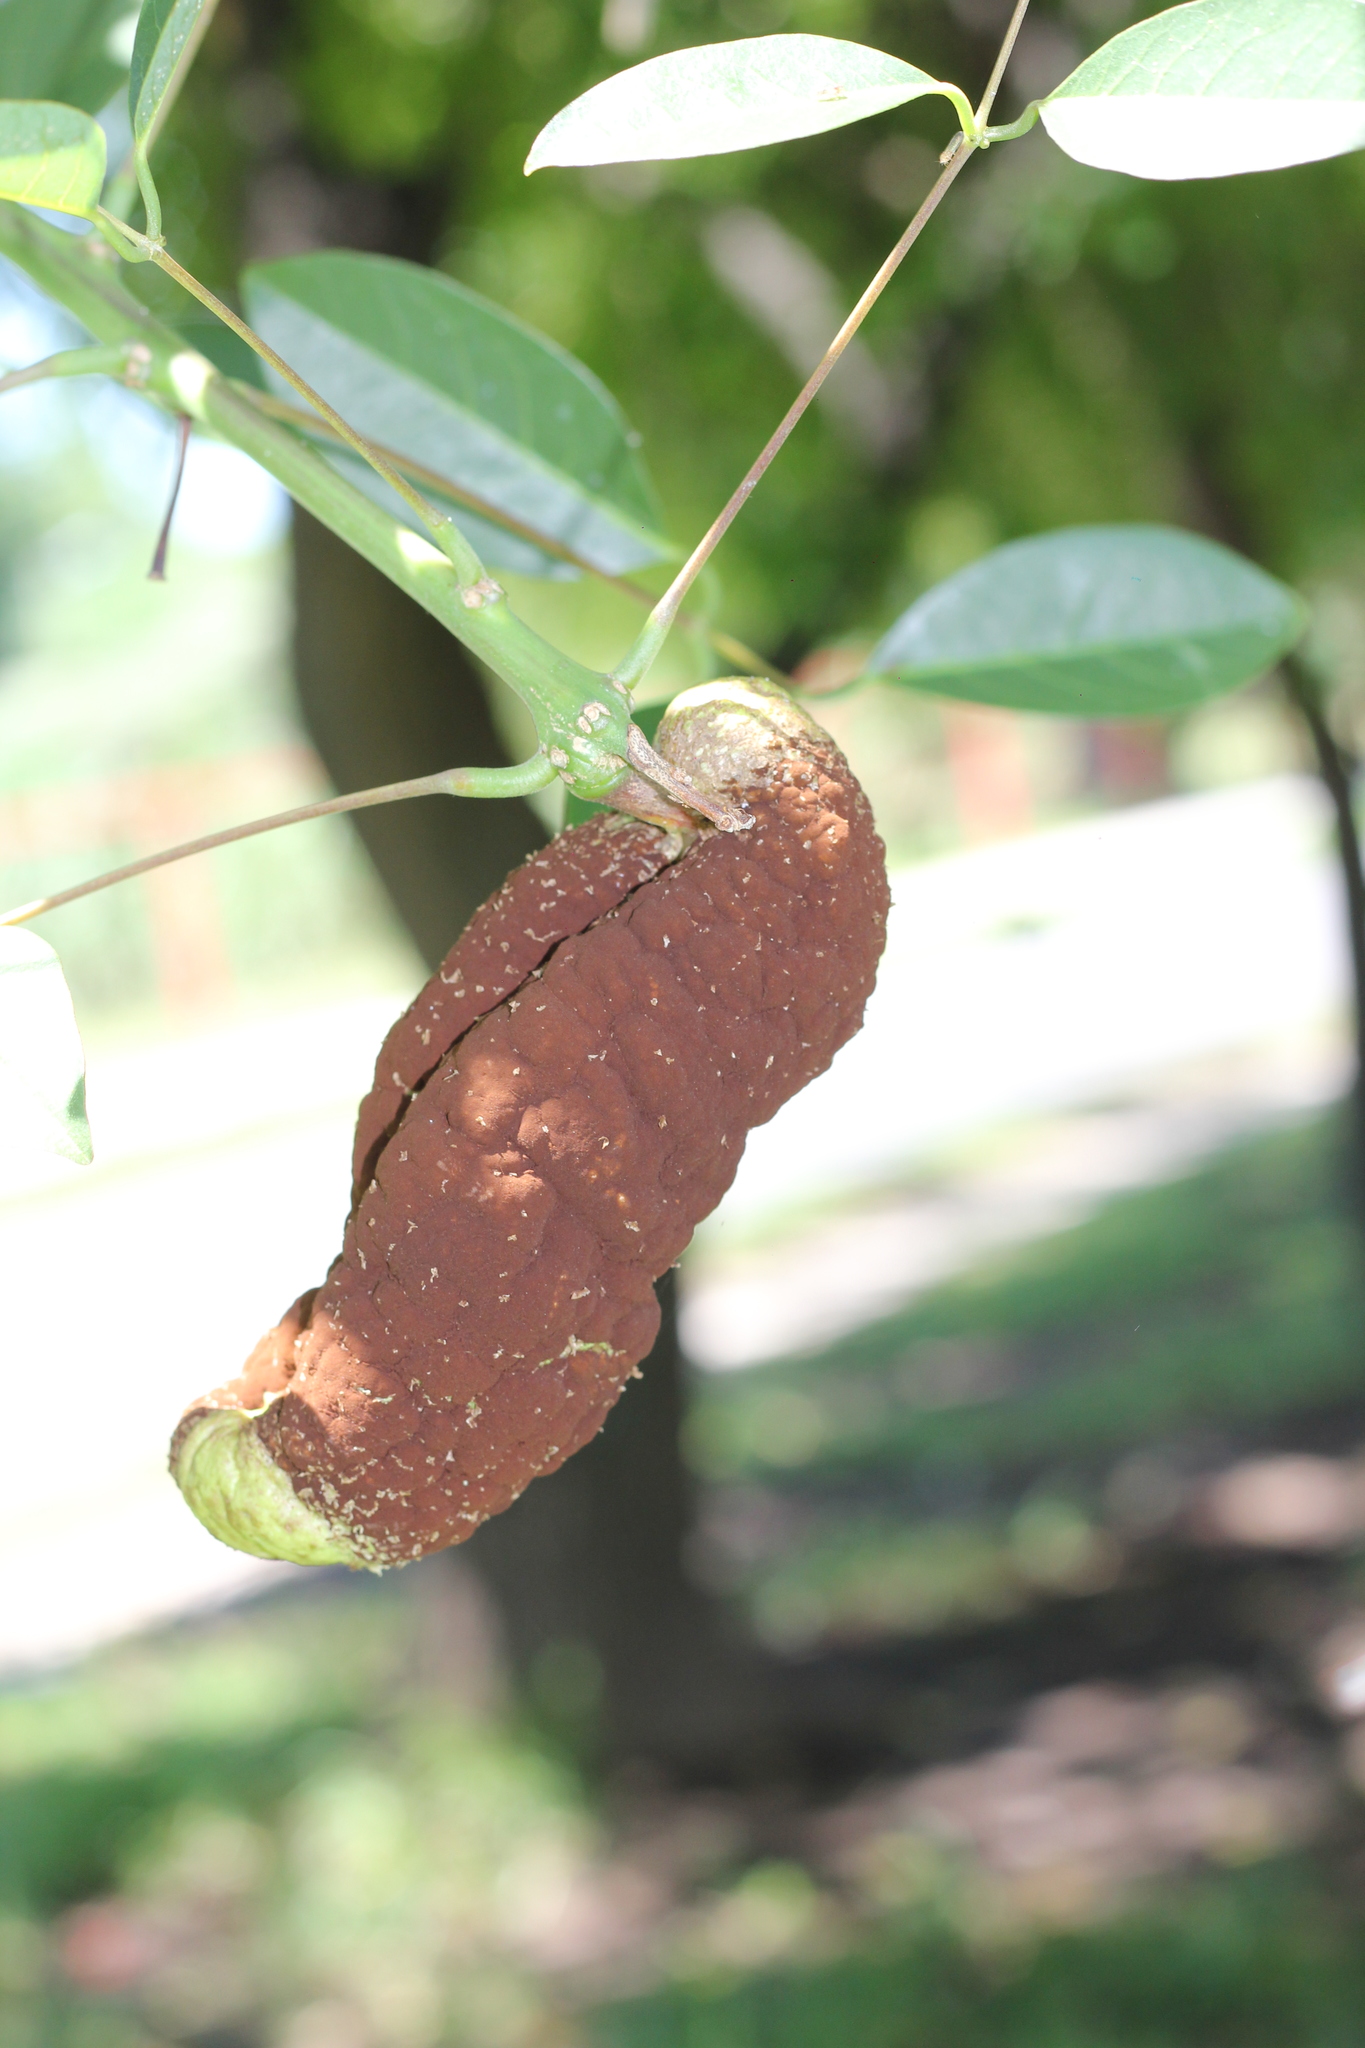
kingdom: Fungi
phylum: Basidiomycota
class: Pucciniomycetes
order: Pucciniales
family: Raveneliaceae
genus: Ravenelia
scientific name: Ravenelia platensis
